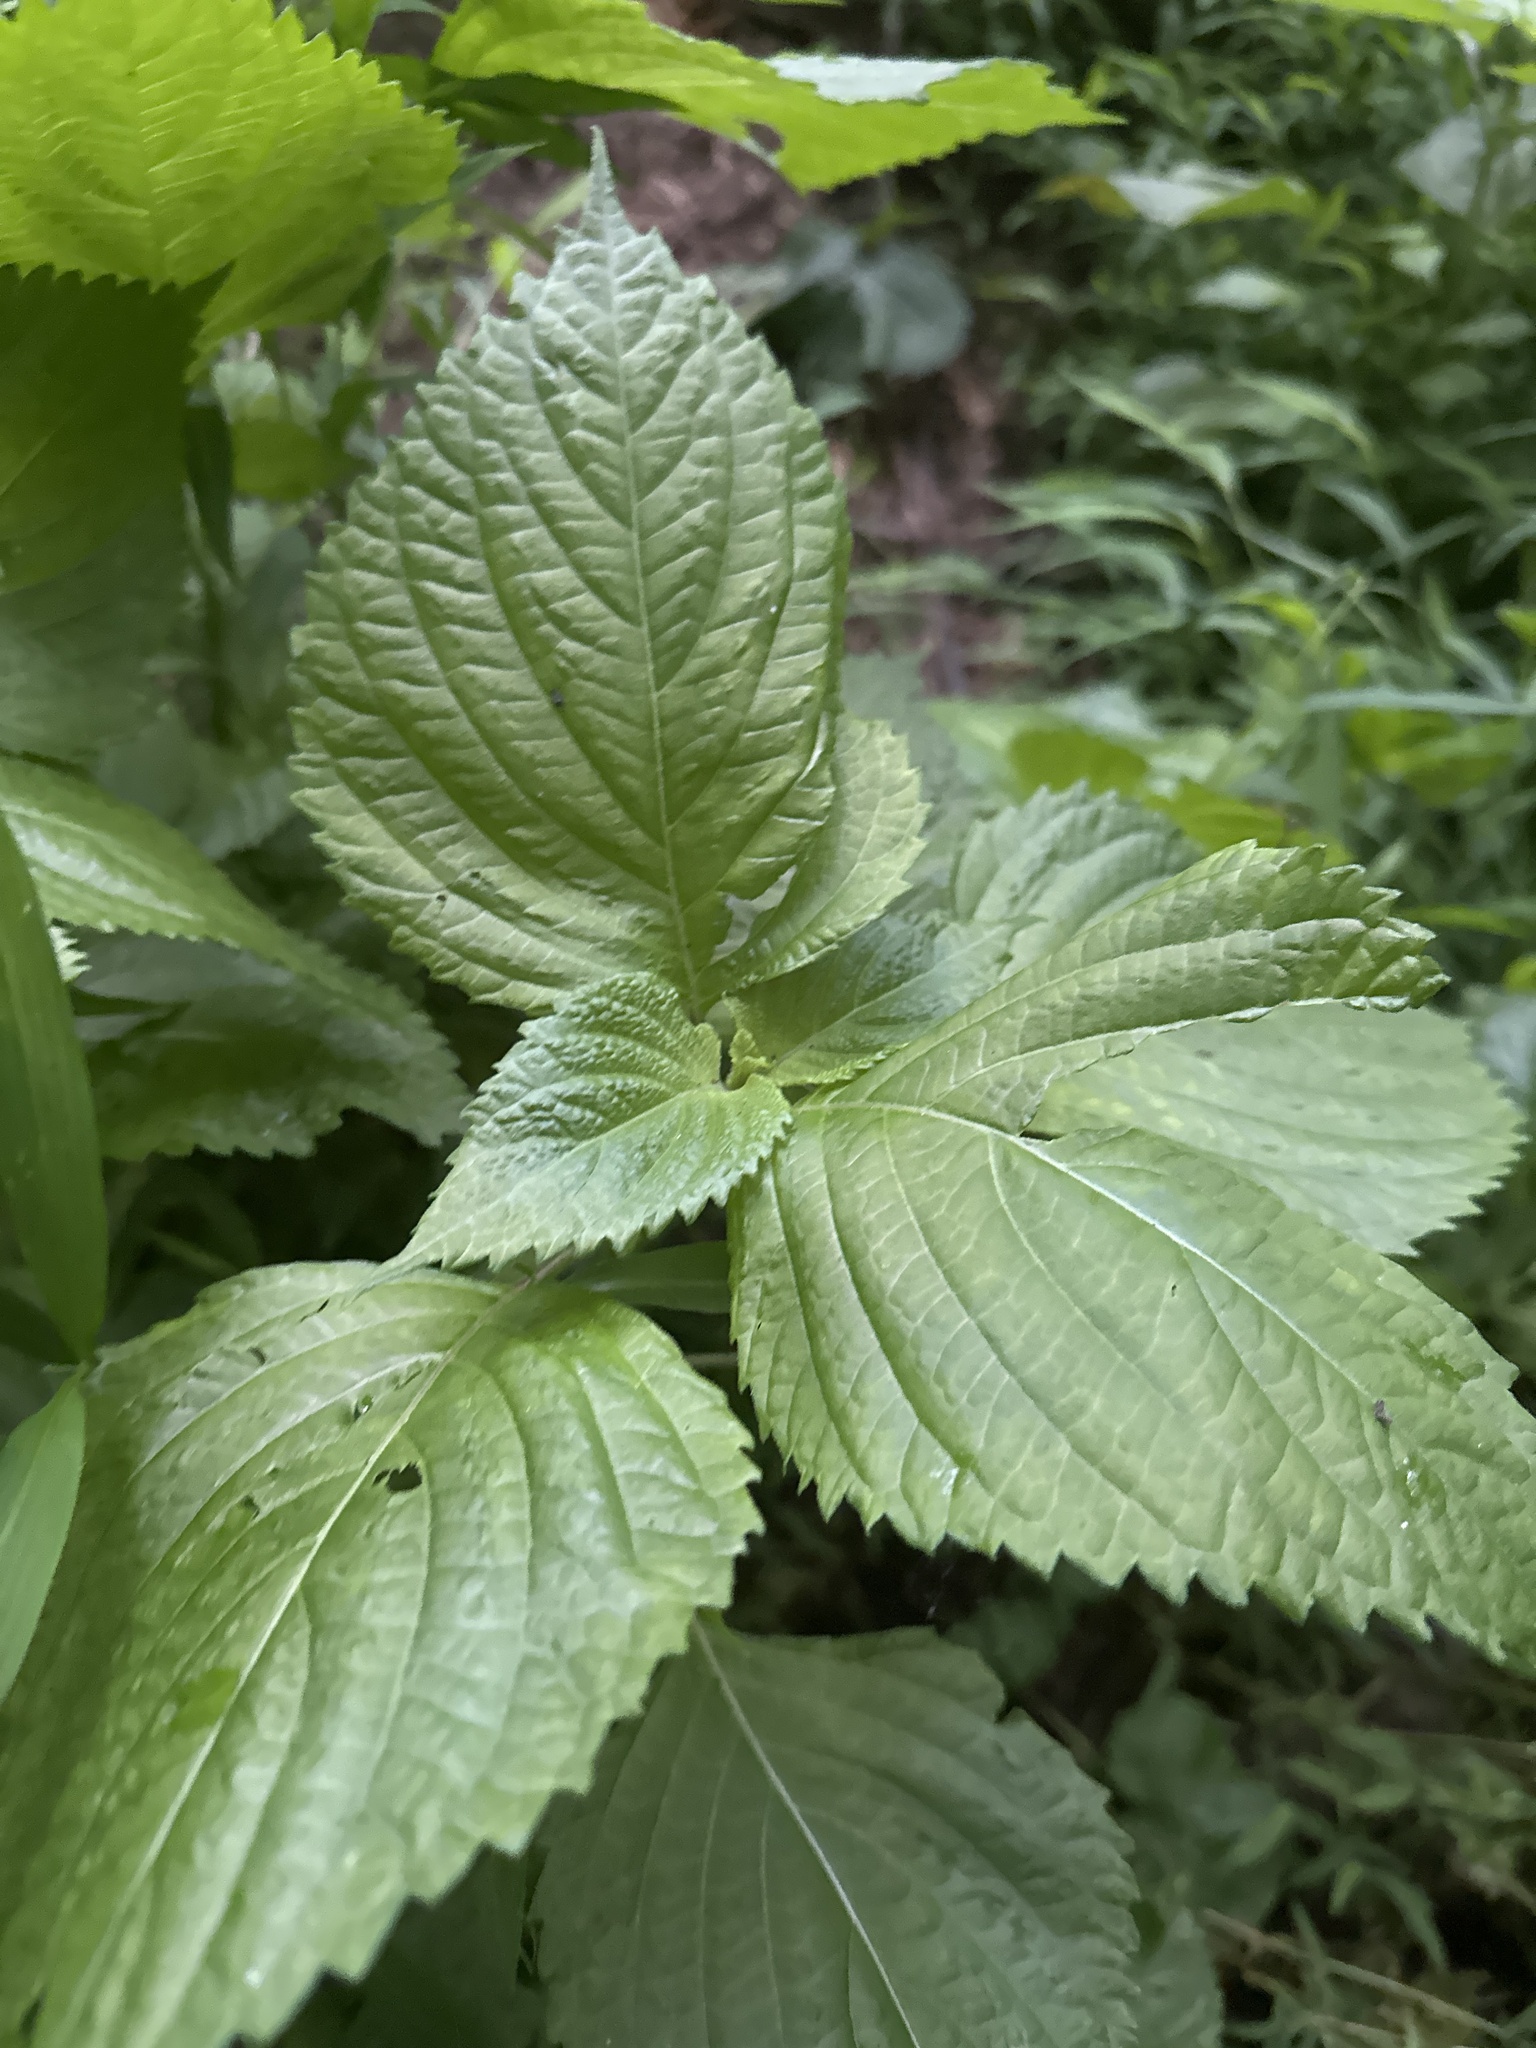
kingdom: Plantae
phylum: Tracheophyta
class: Magnoliopsida
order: Lamiales
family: Lamiaceae
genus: Perilla
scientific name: Perilla frutescens
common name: Perilla
